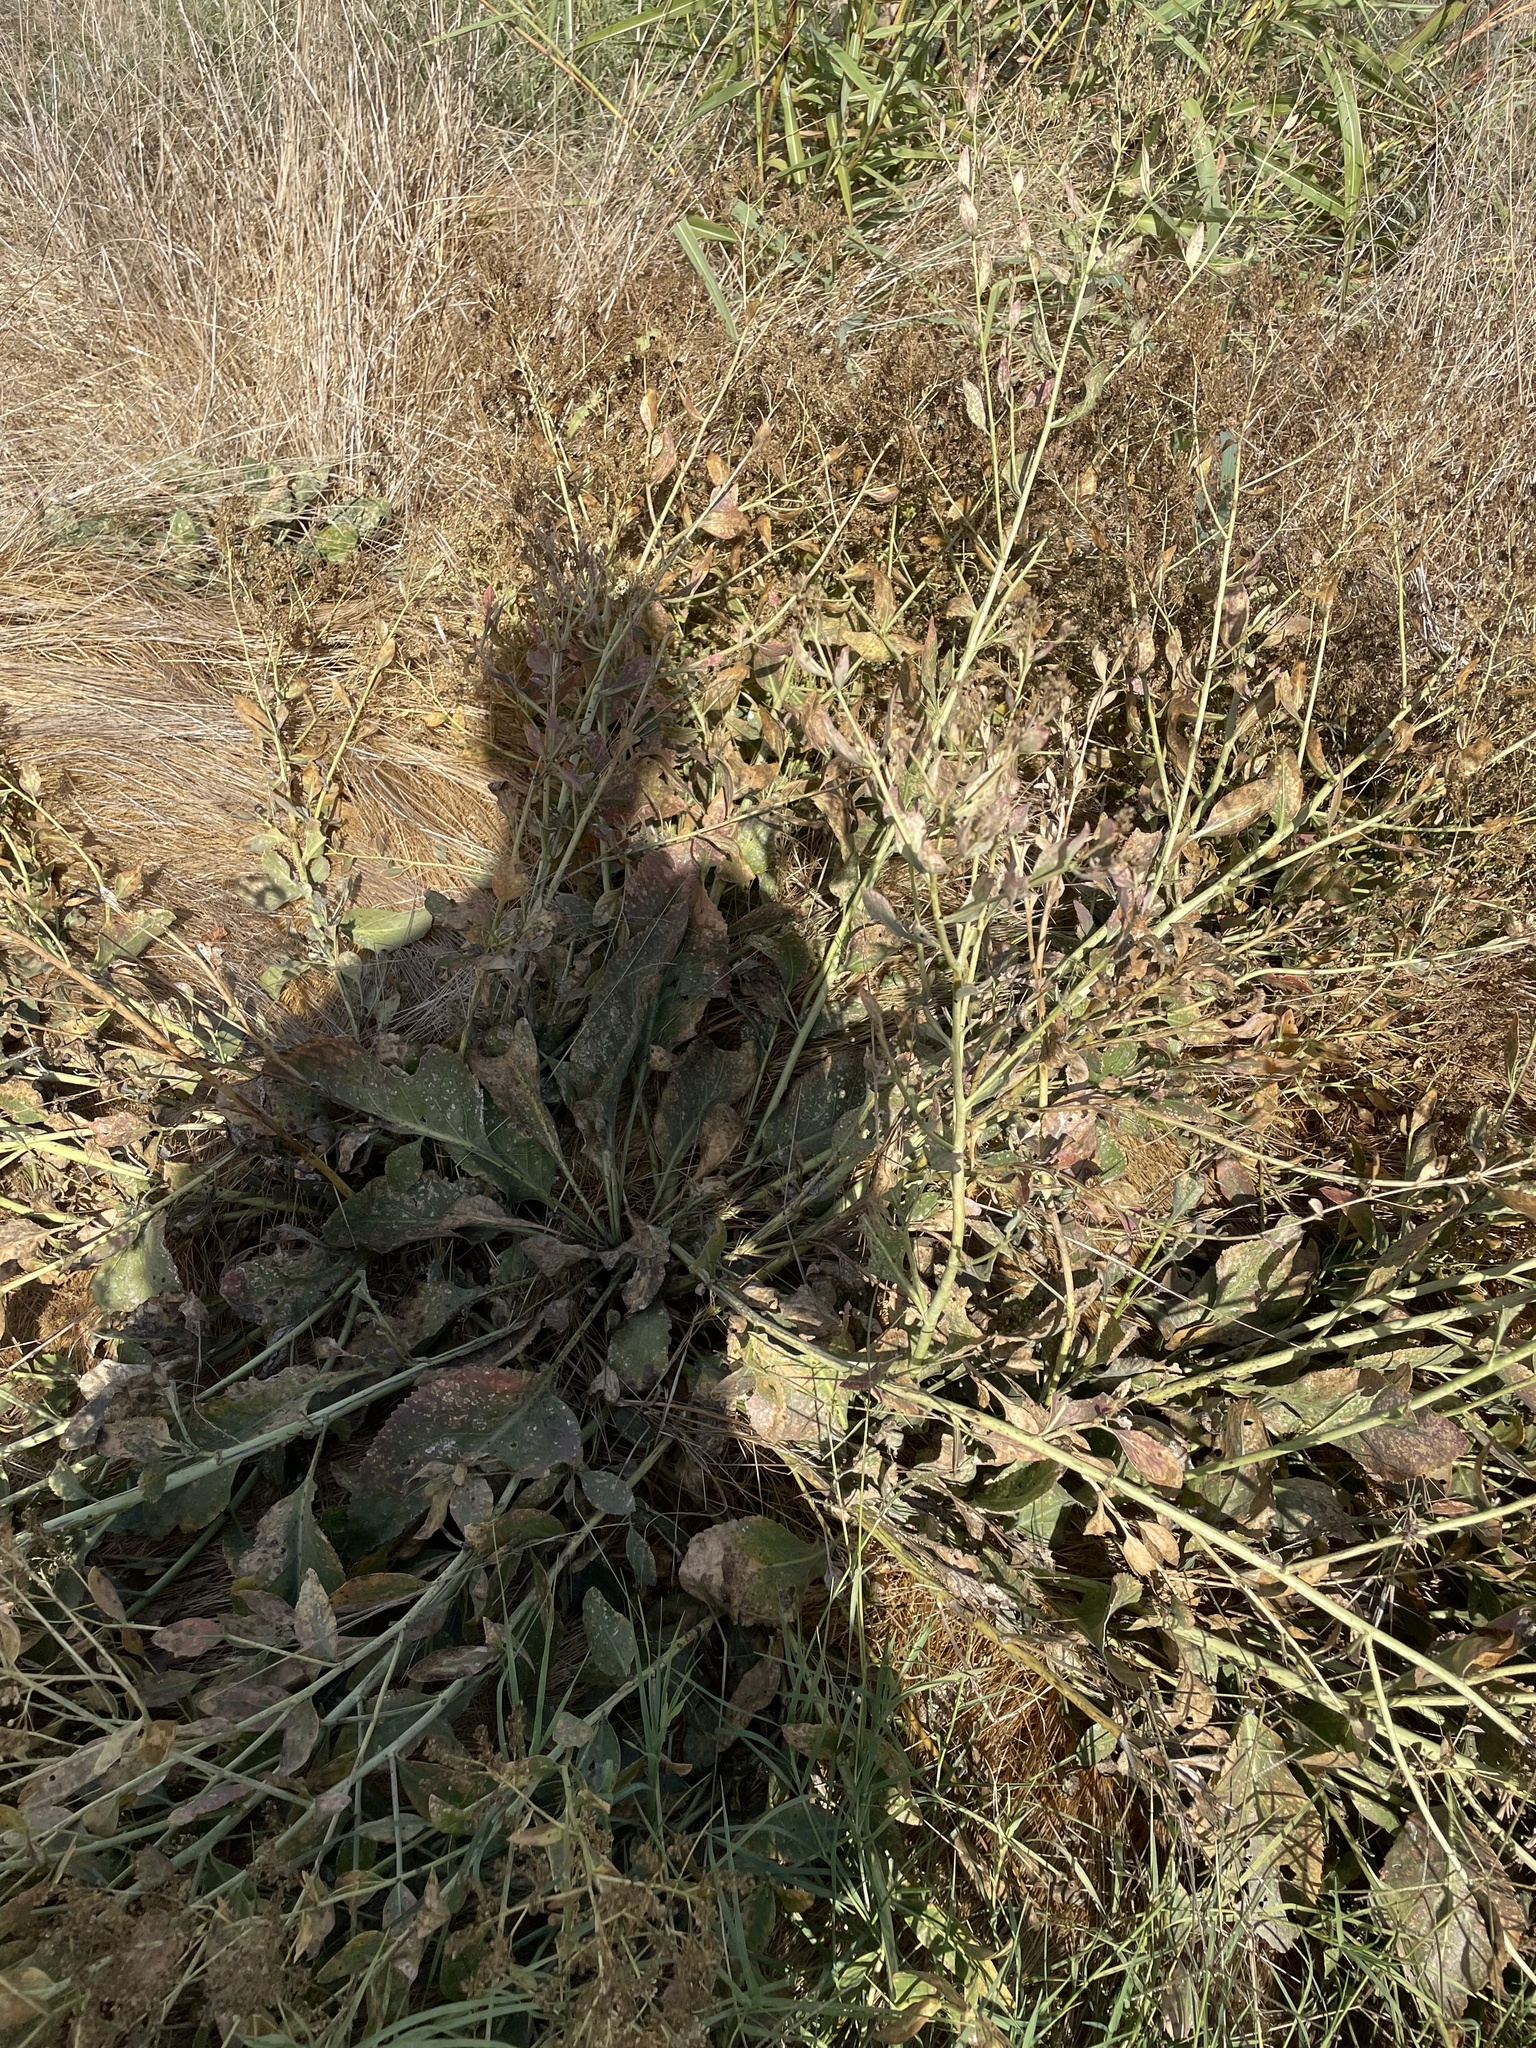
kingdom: Plantae
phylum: Tracheophyta
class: Magnoliopsida
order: Brassicales
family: Brassicaceae
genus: Lepidium
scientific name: Lepidium latifolium
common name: Dittander
